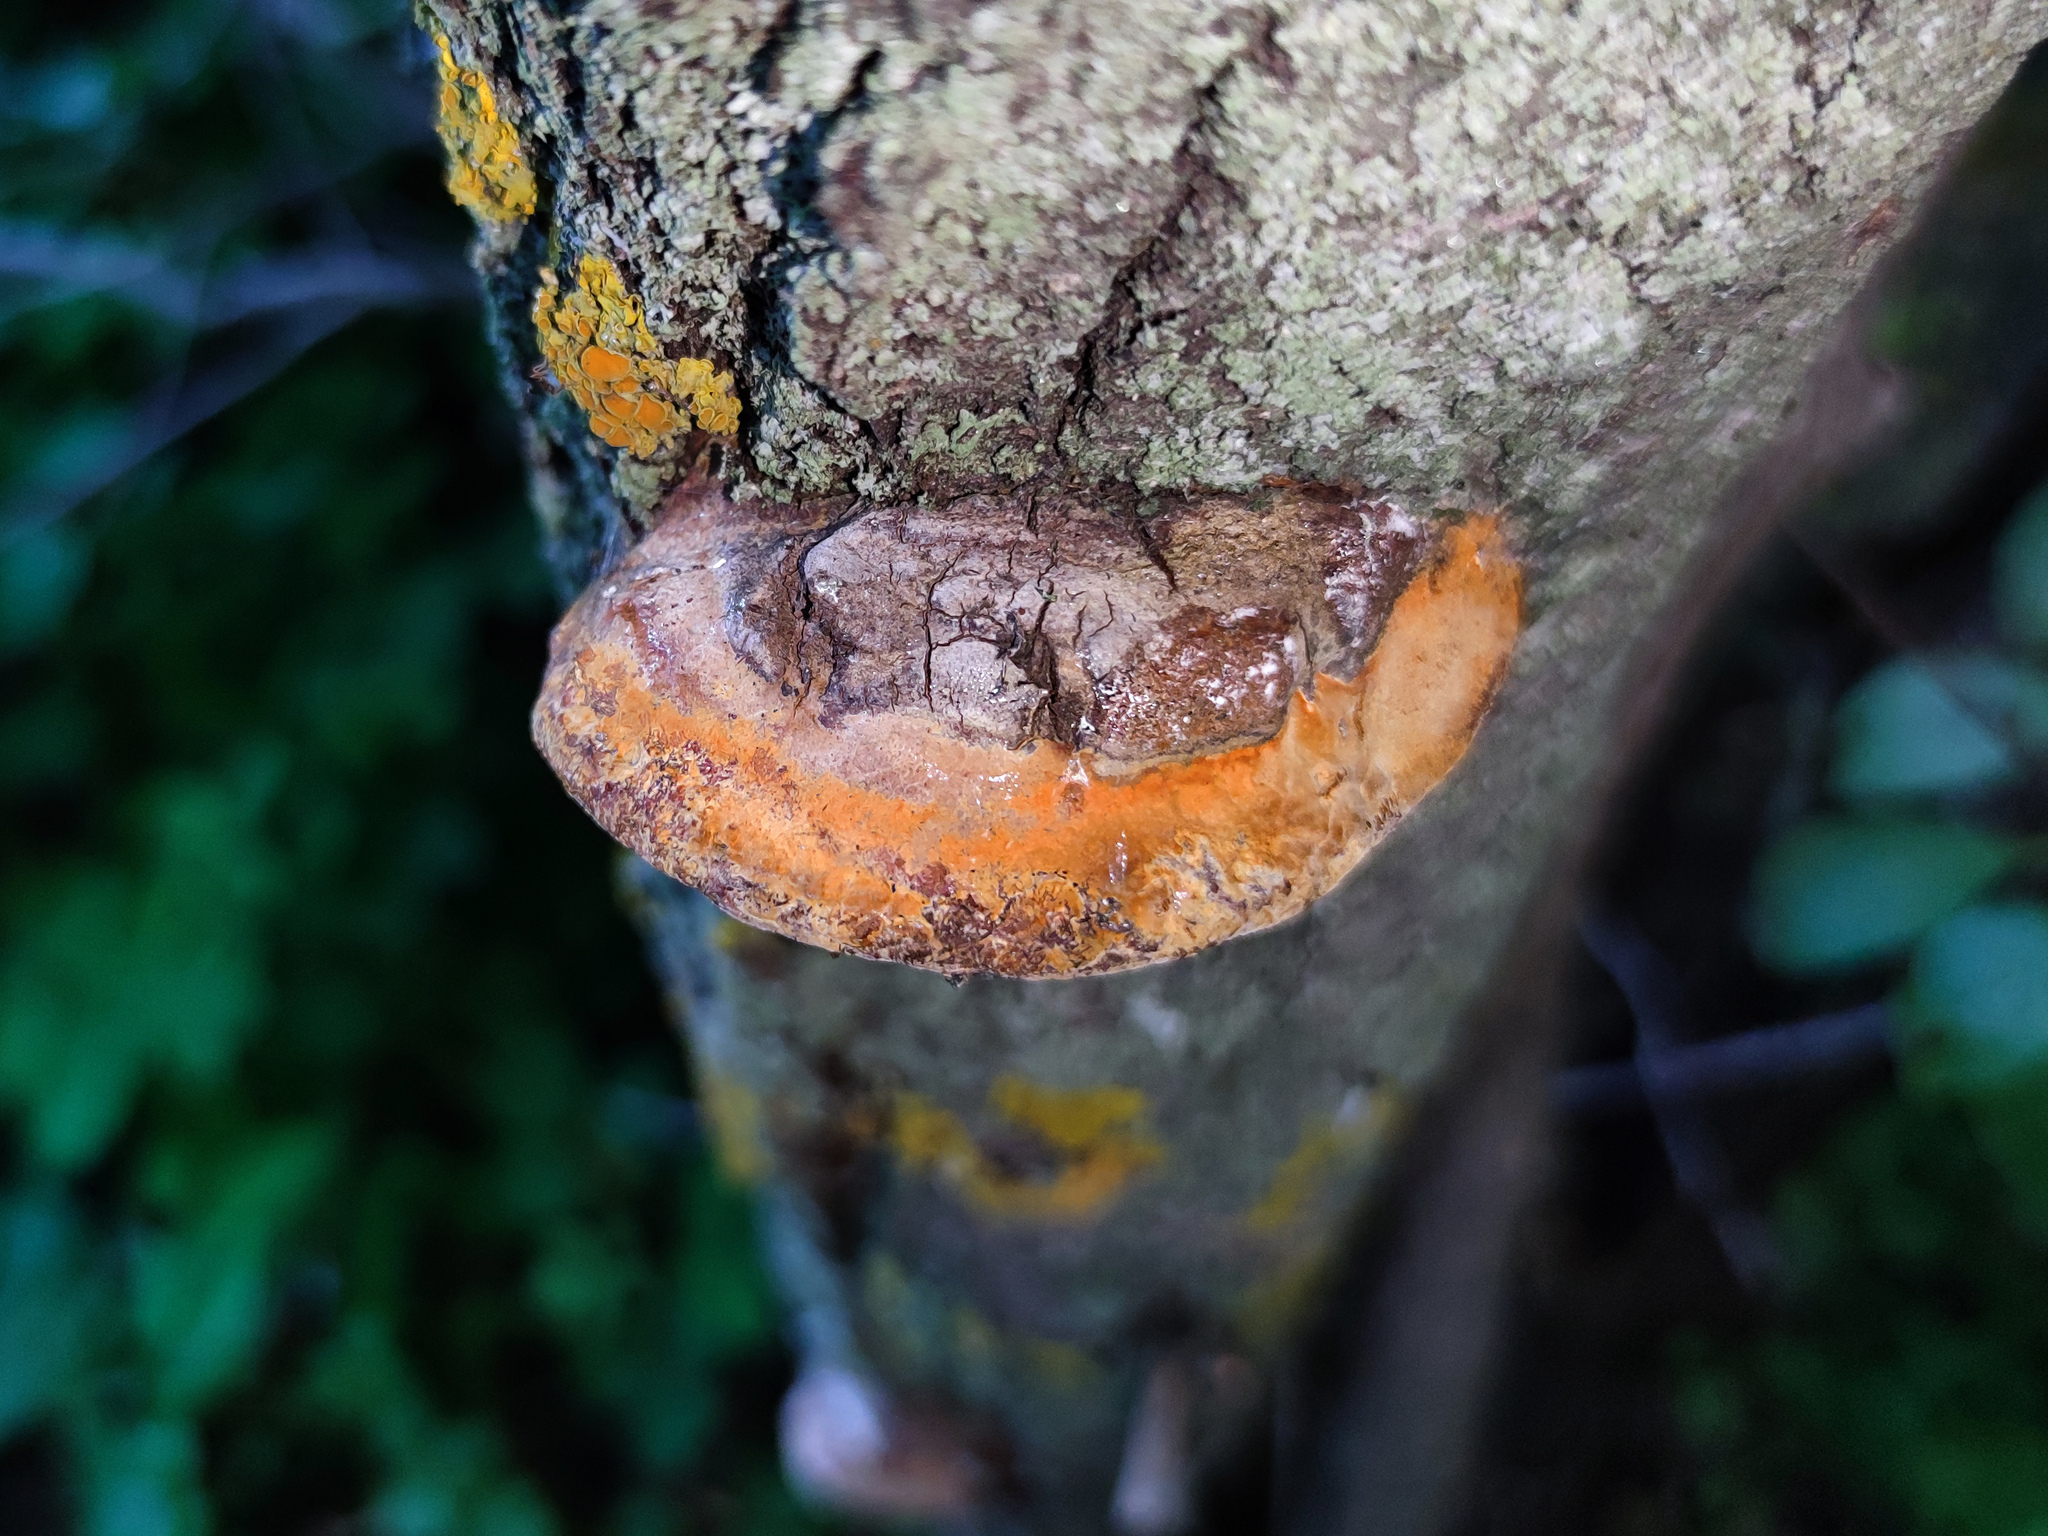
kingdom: Fungi
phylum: Basidiomycota
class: Agaricomycetes
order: Hymenochaetales
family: Hymenochaetaceae
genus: Phellinus
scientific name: Phellinus pomaceus
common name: Cushion bracket
